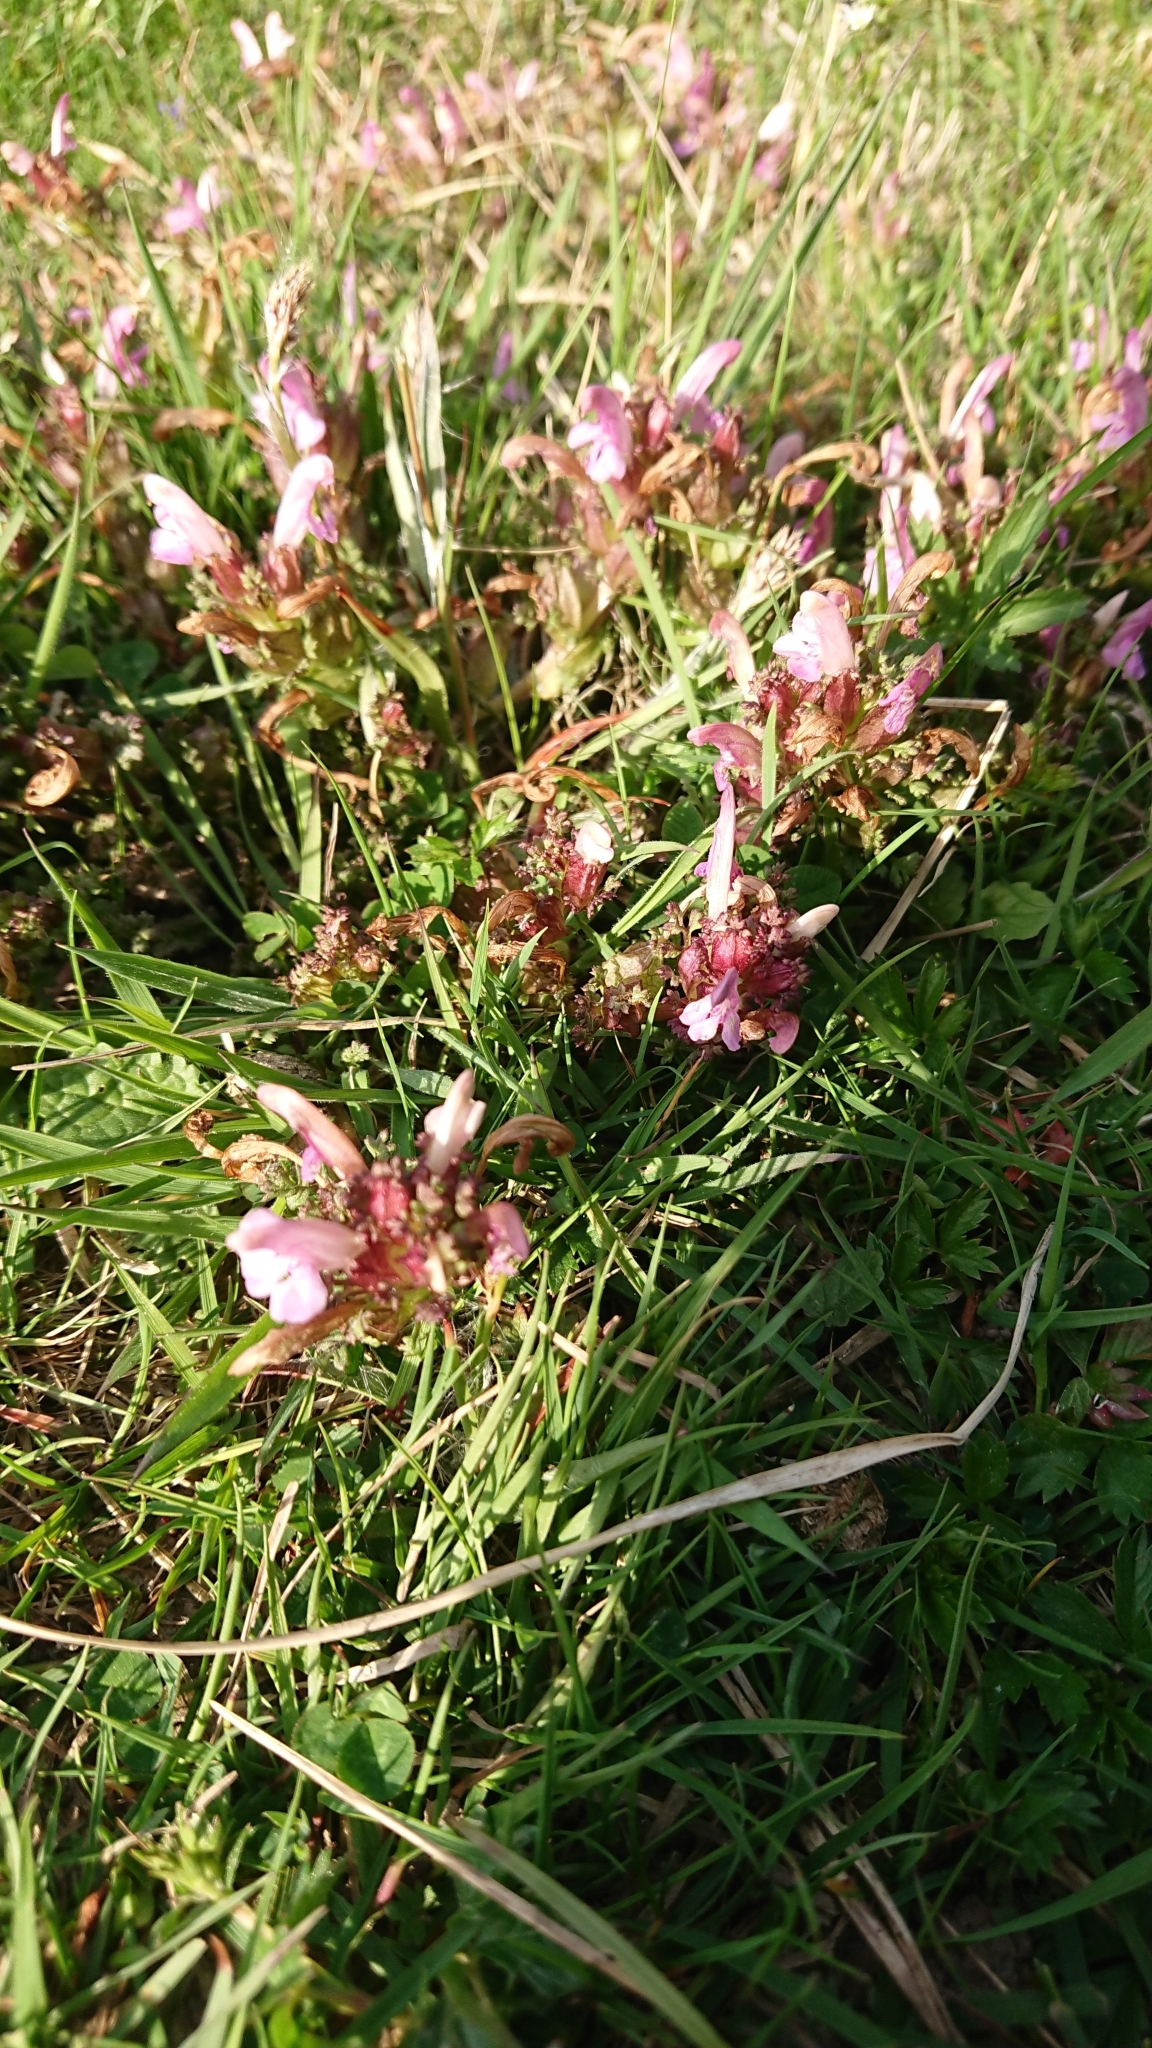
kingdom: Plantae
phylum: Tracheophyta
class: Magnoliopsida
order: Lamiales
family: Orobanchaceae
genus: Pedicularis
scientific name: Pedicularis sylvatica
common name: Lousewort
